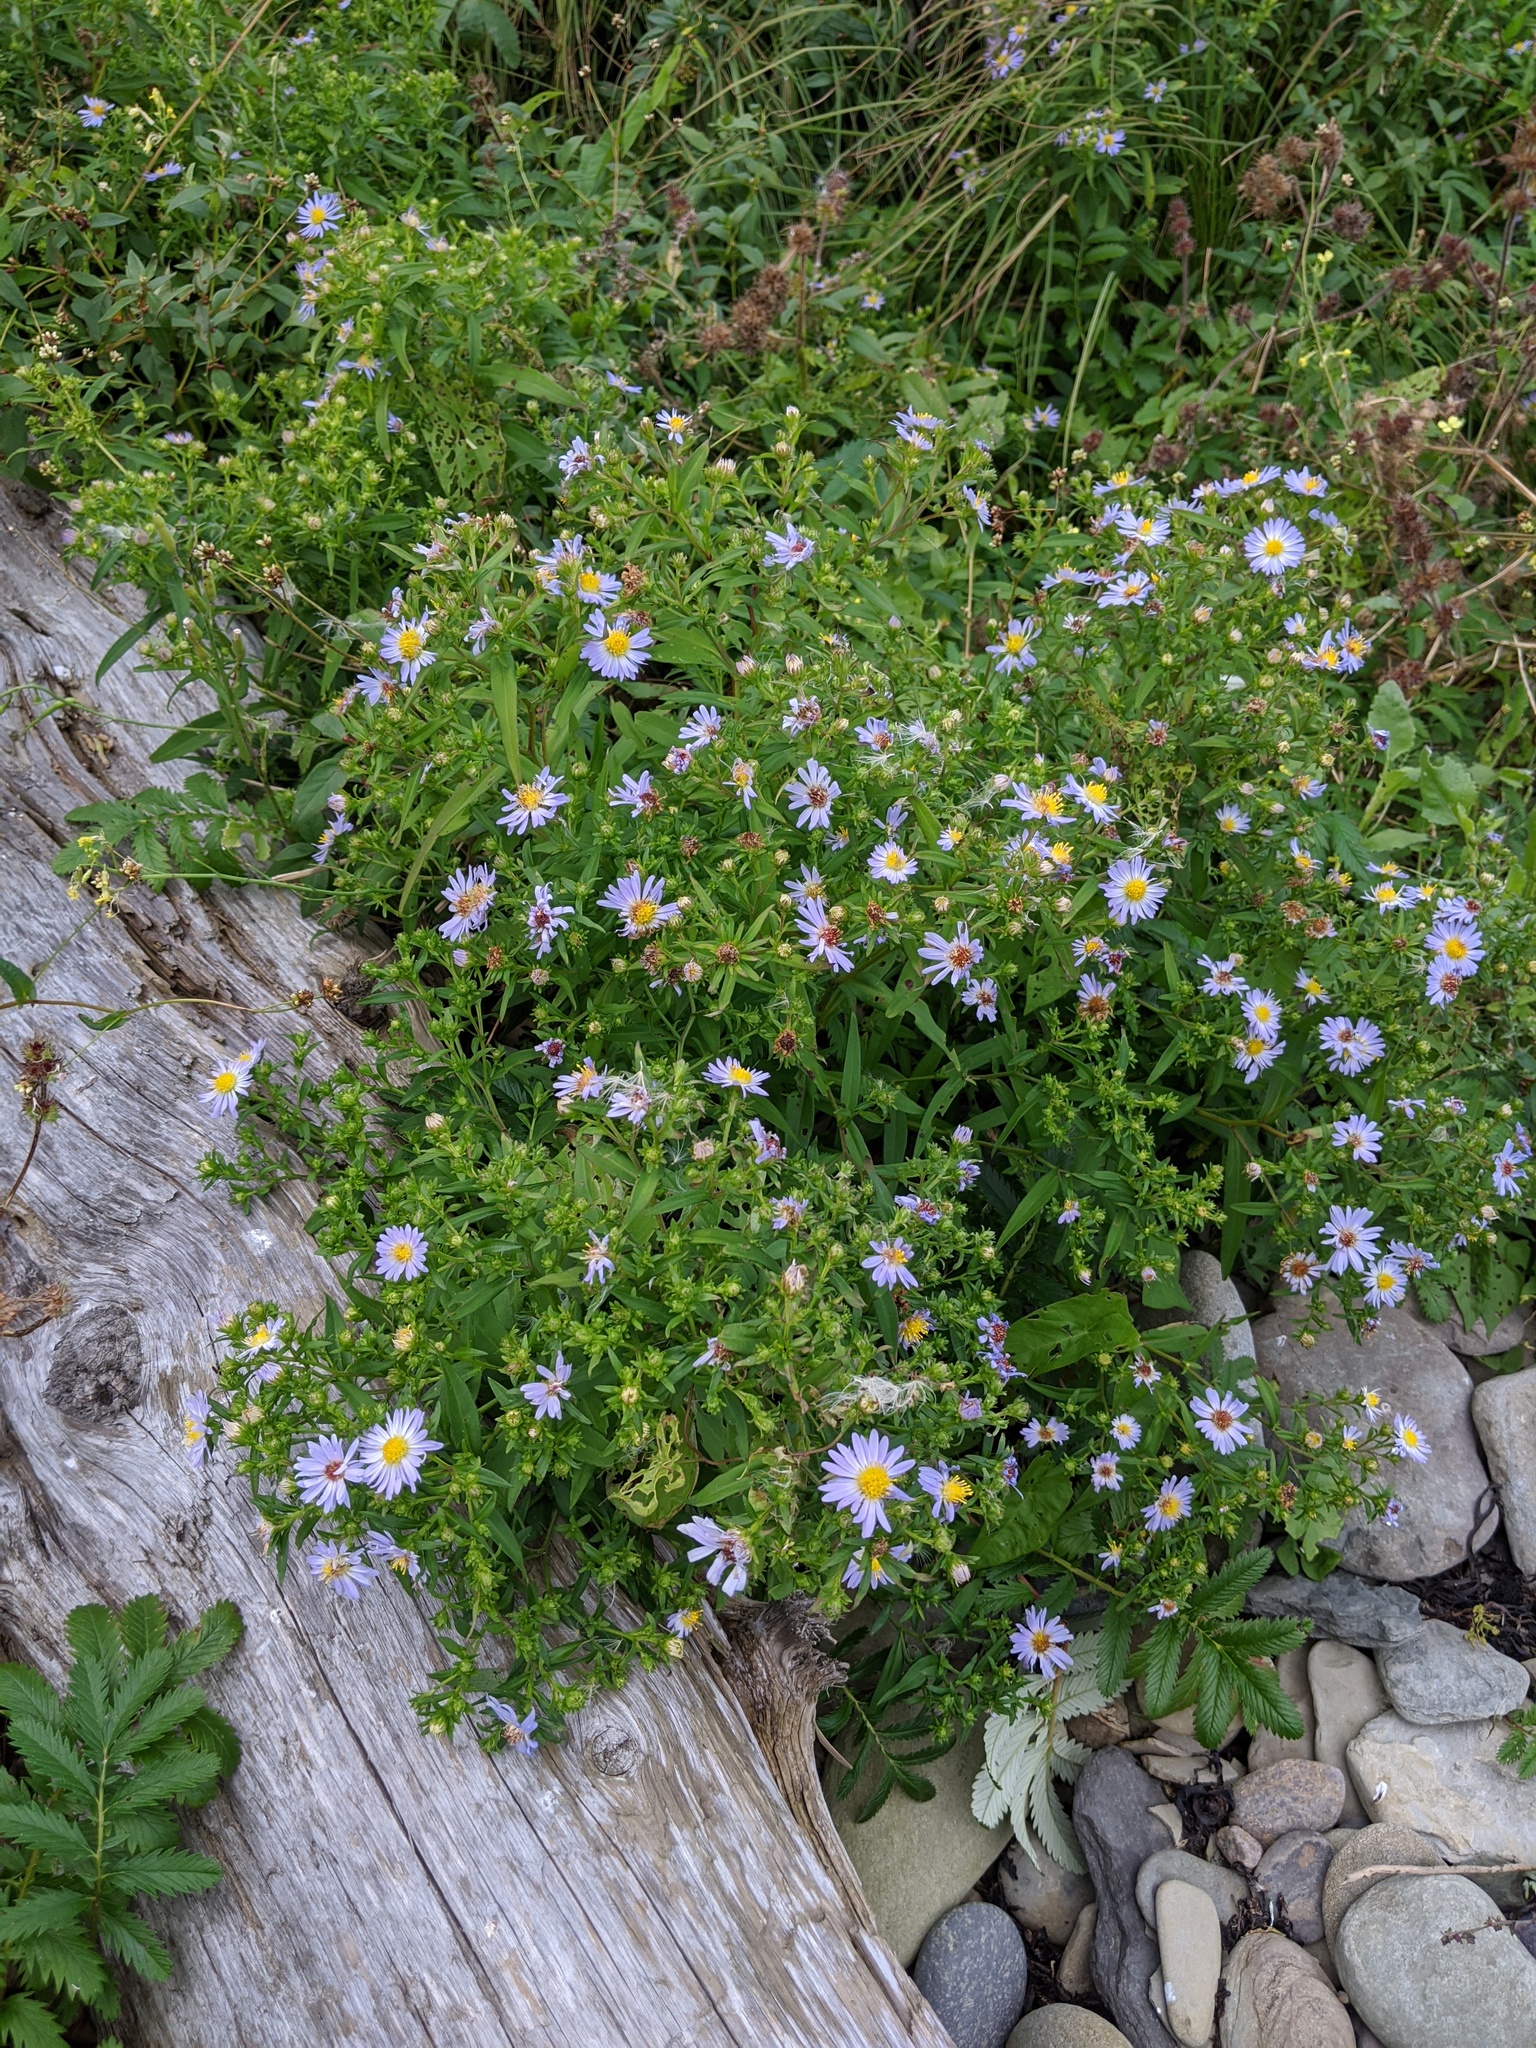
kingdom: Plantae
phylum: Tracheophyta
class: Magnoliopsida
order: Asterales
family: Asteraceae
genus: Symphyotrichum
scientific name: Symphyotrichum novi-belgii
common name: Michaelmas daisy
